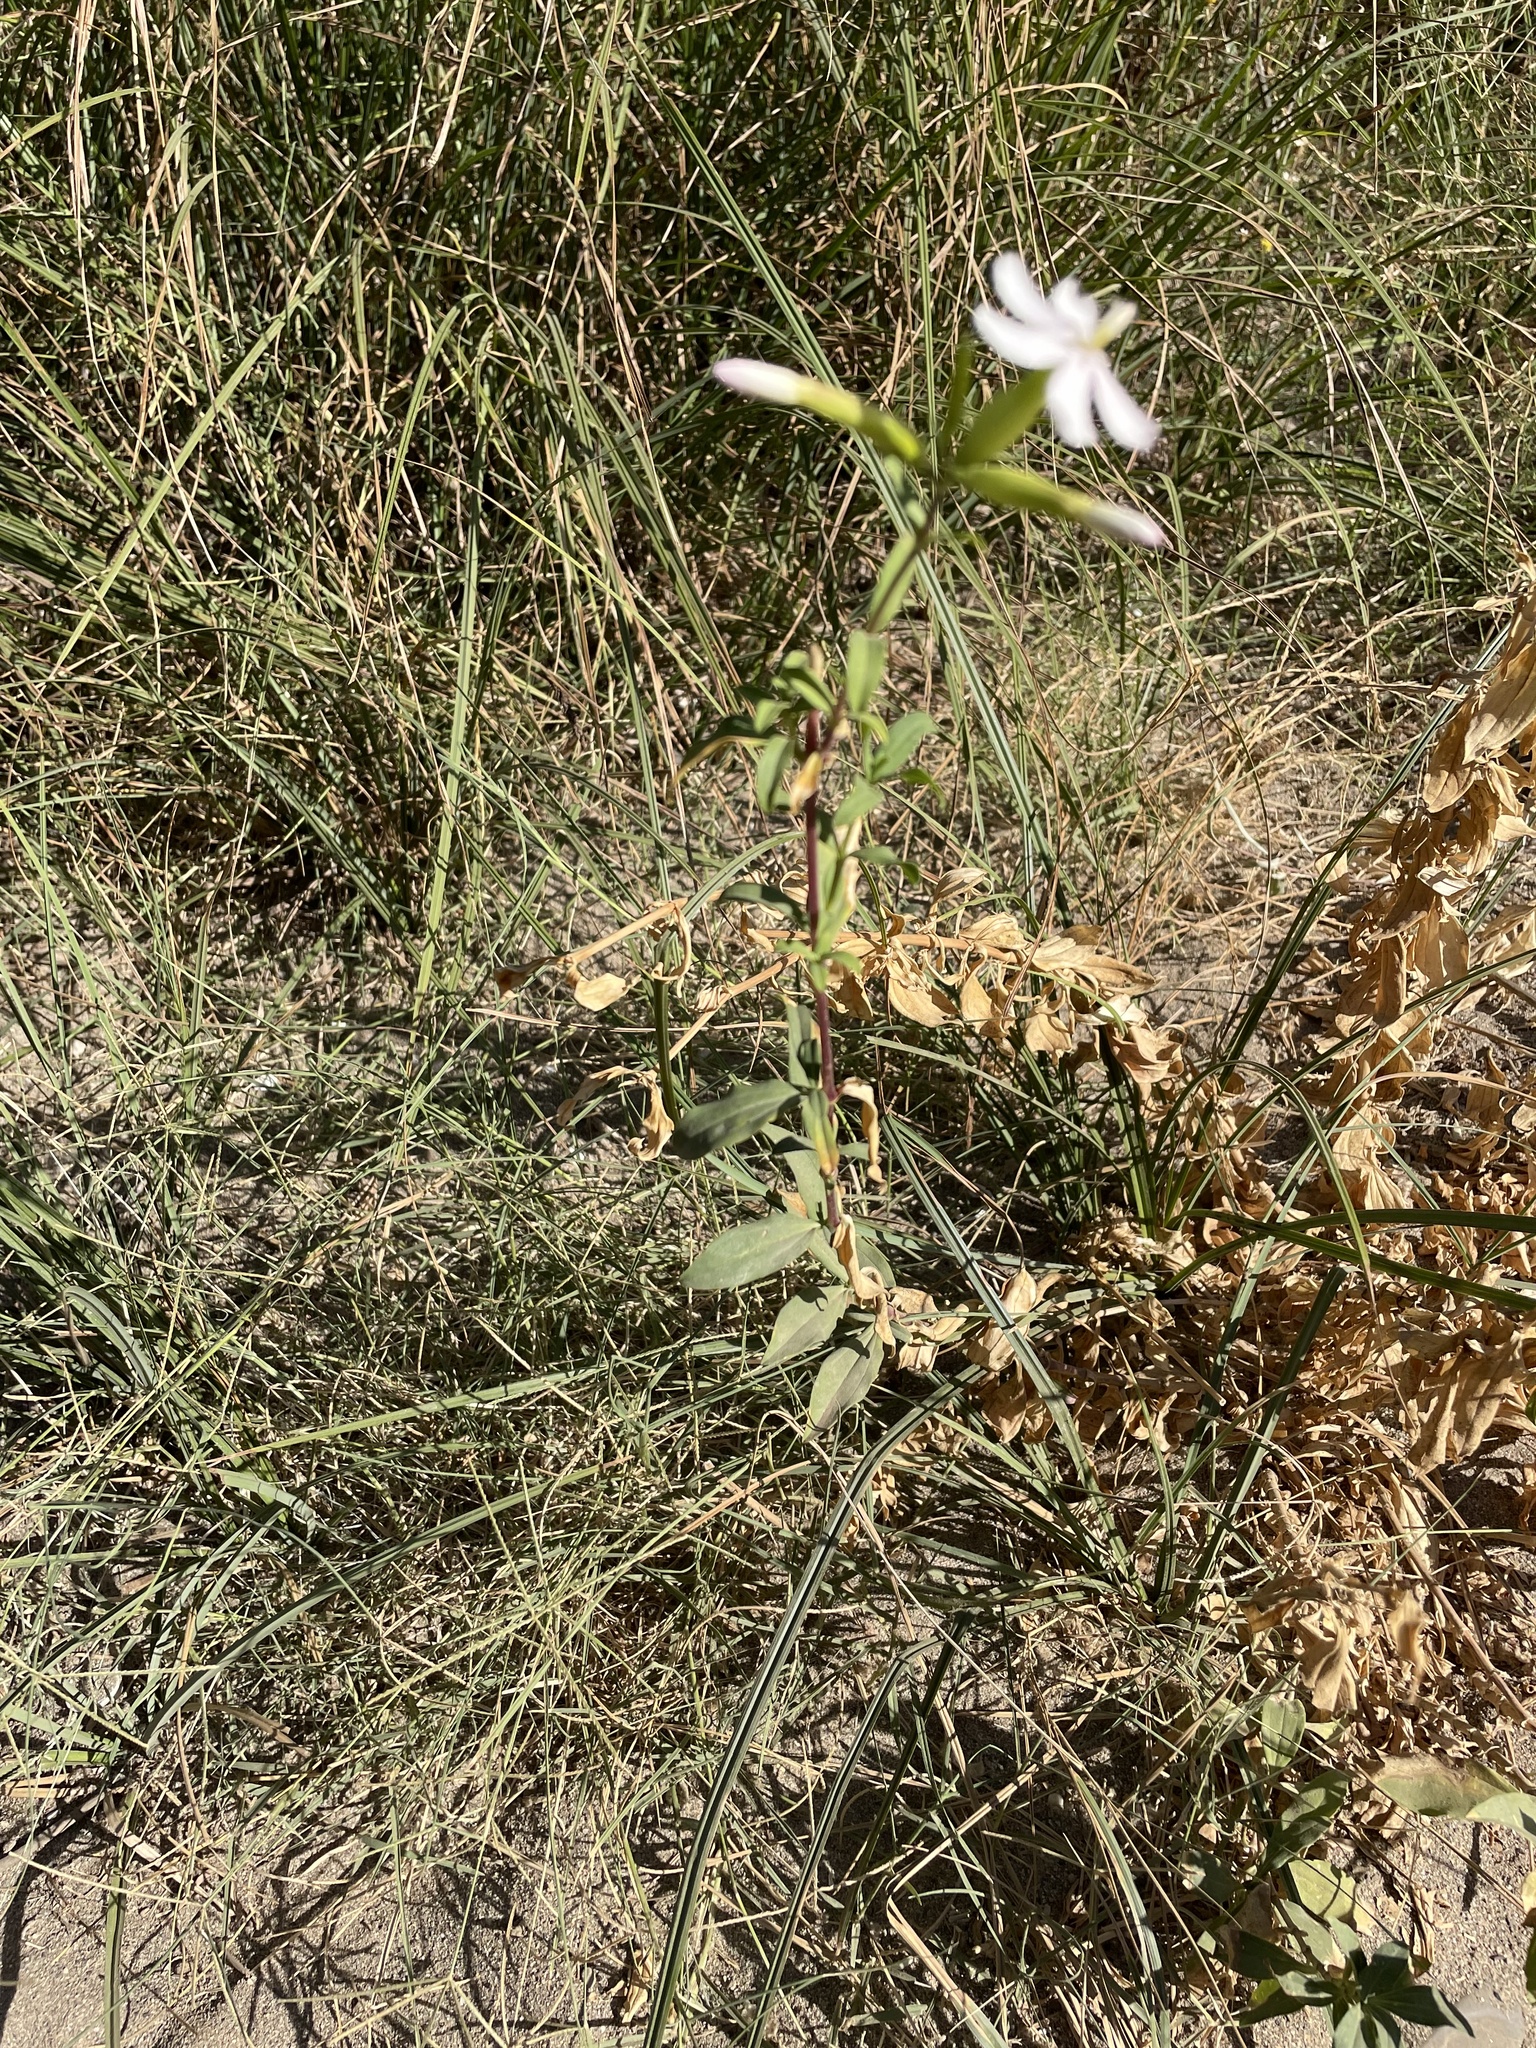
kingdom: Plantae
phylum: Tracheophyta
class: Magnoliopsida
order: Caryophyllales
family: Caryophyllaceae
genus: Saponaria
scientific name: Saponaria officinalis
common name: Soapwort
